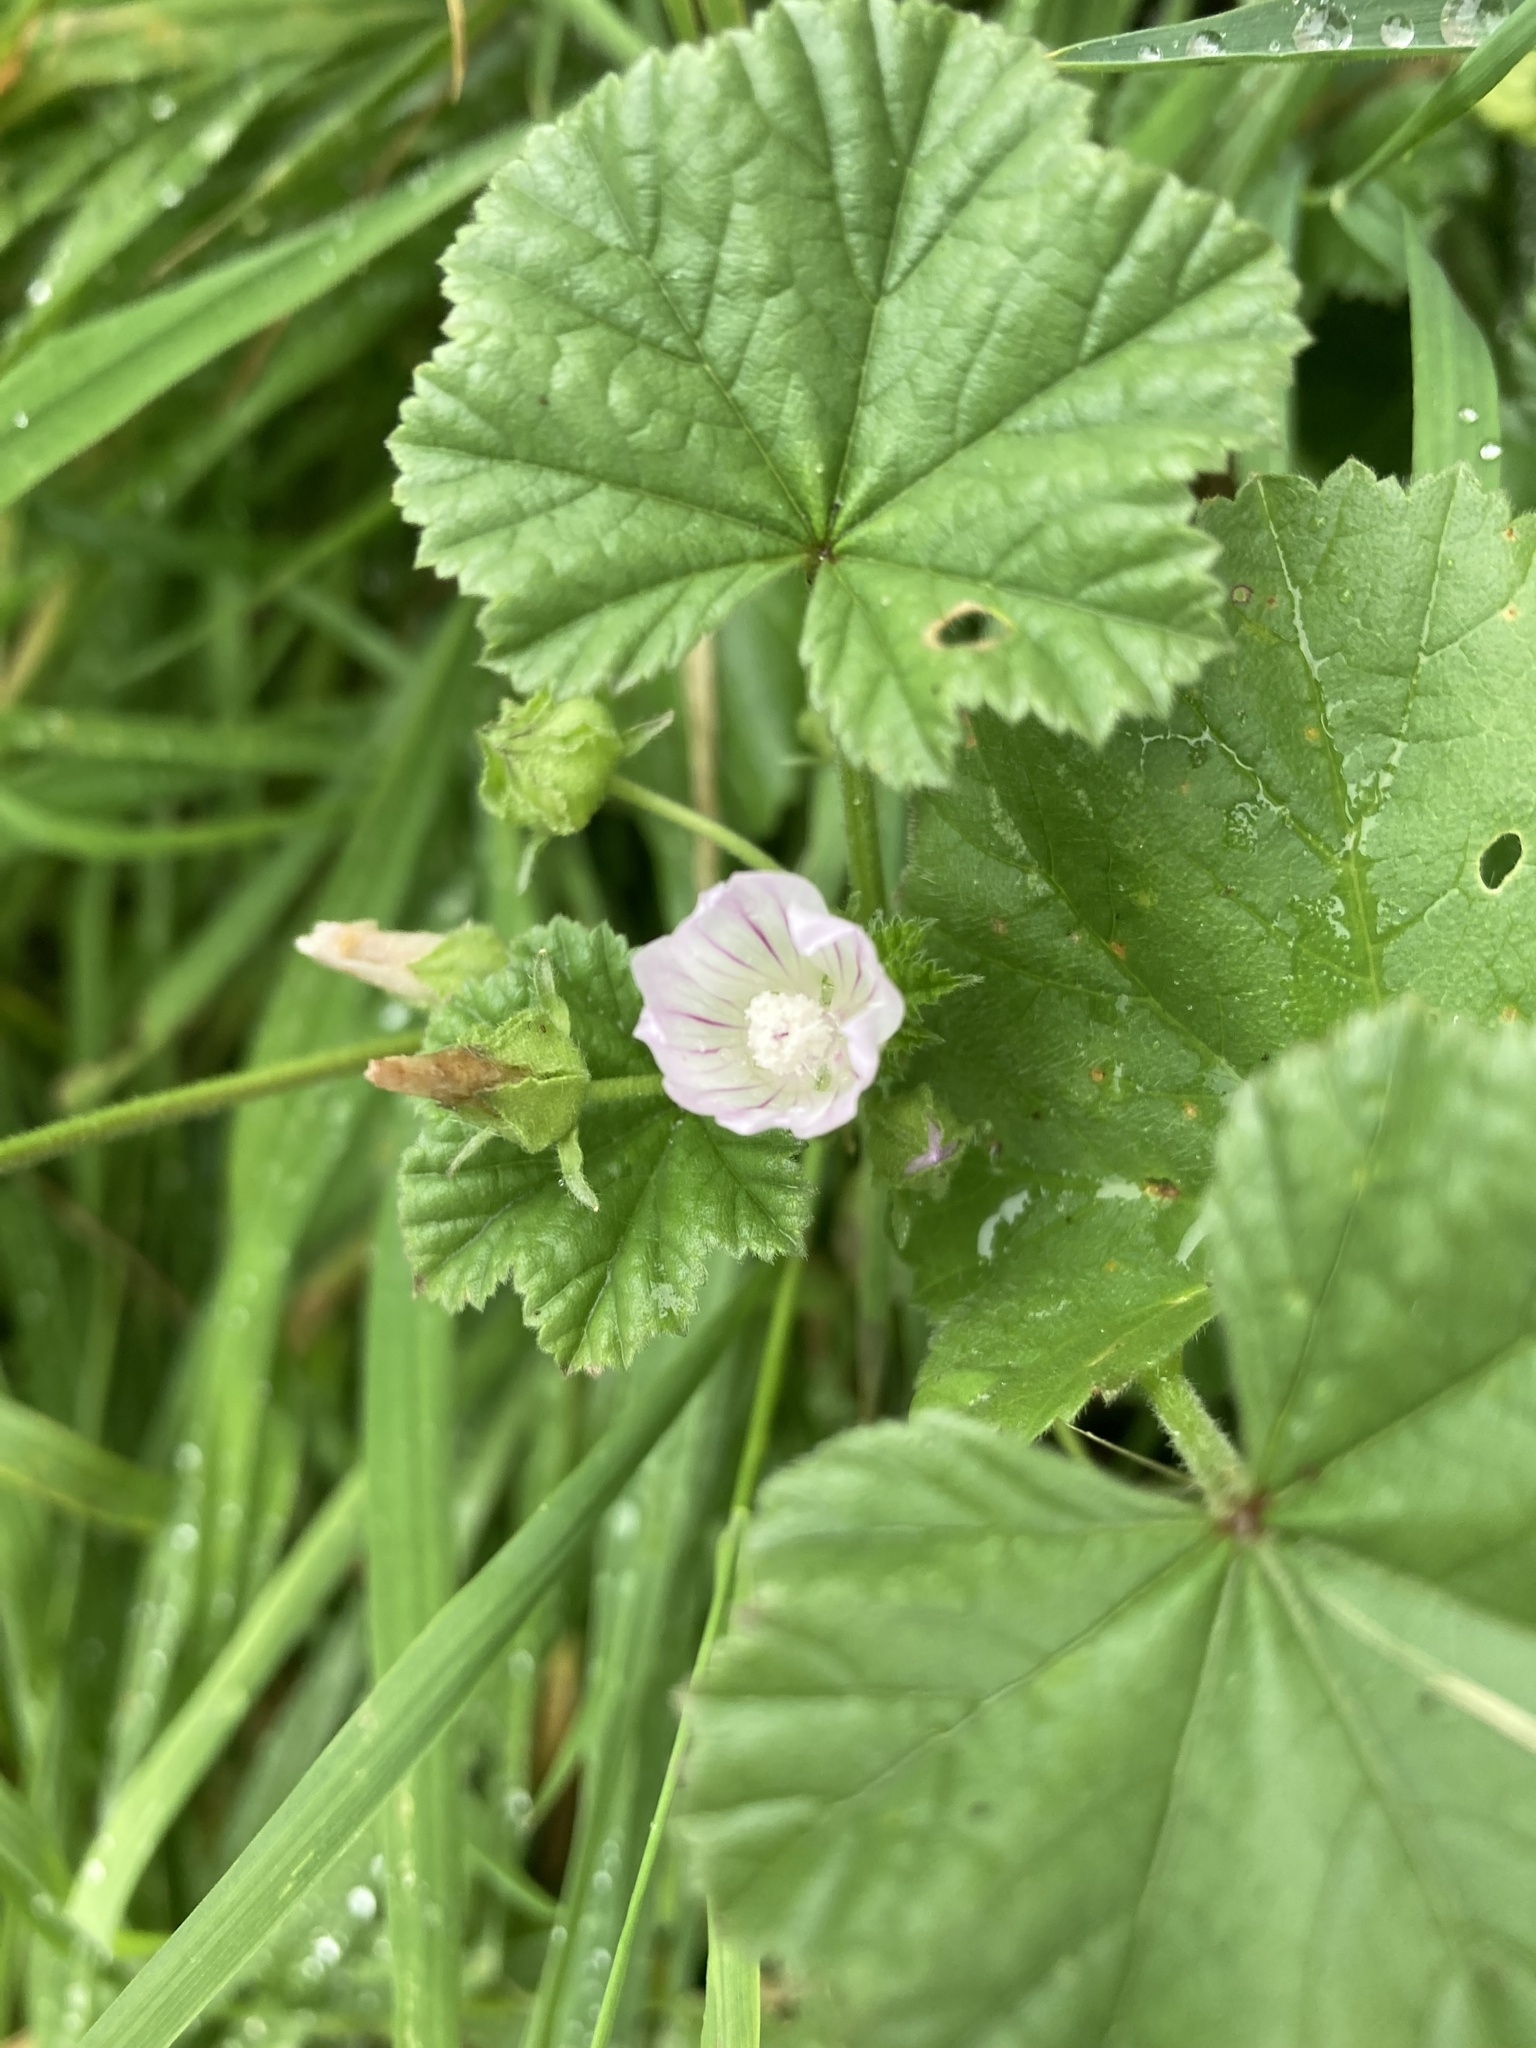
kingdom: Plantae
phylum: Tracheophyta
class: Magnoliopsida
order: Malvales
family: Malvaceae
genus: Malva
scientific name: Malva neglecta
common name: Common mallow
